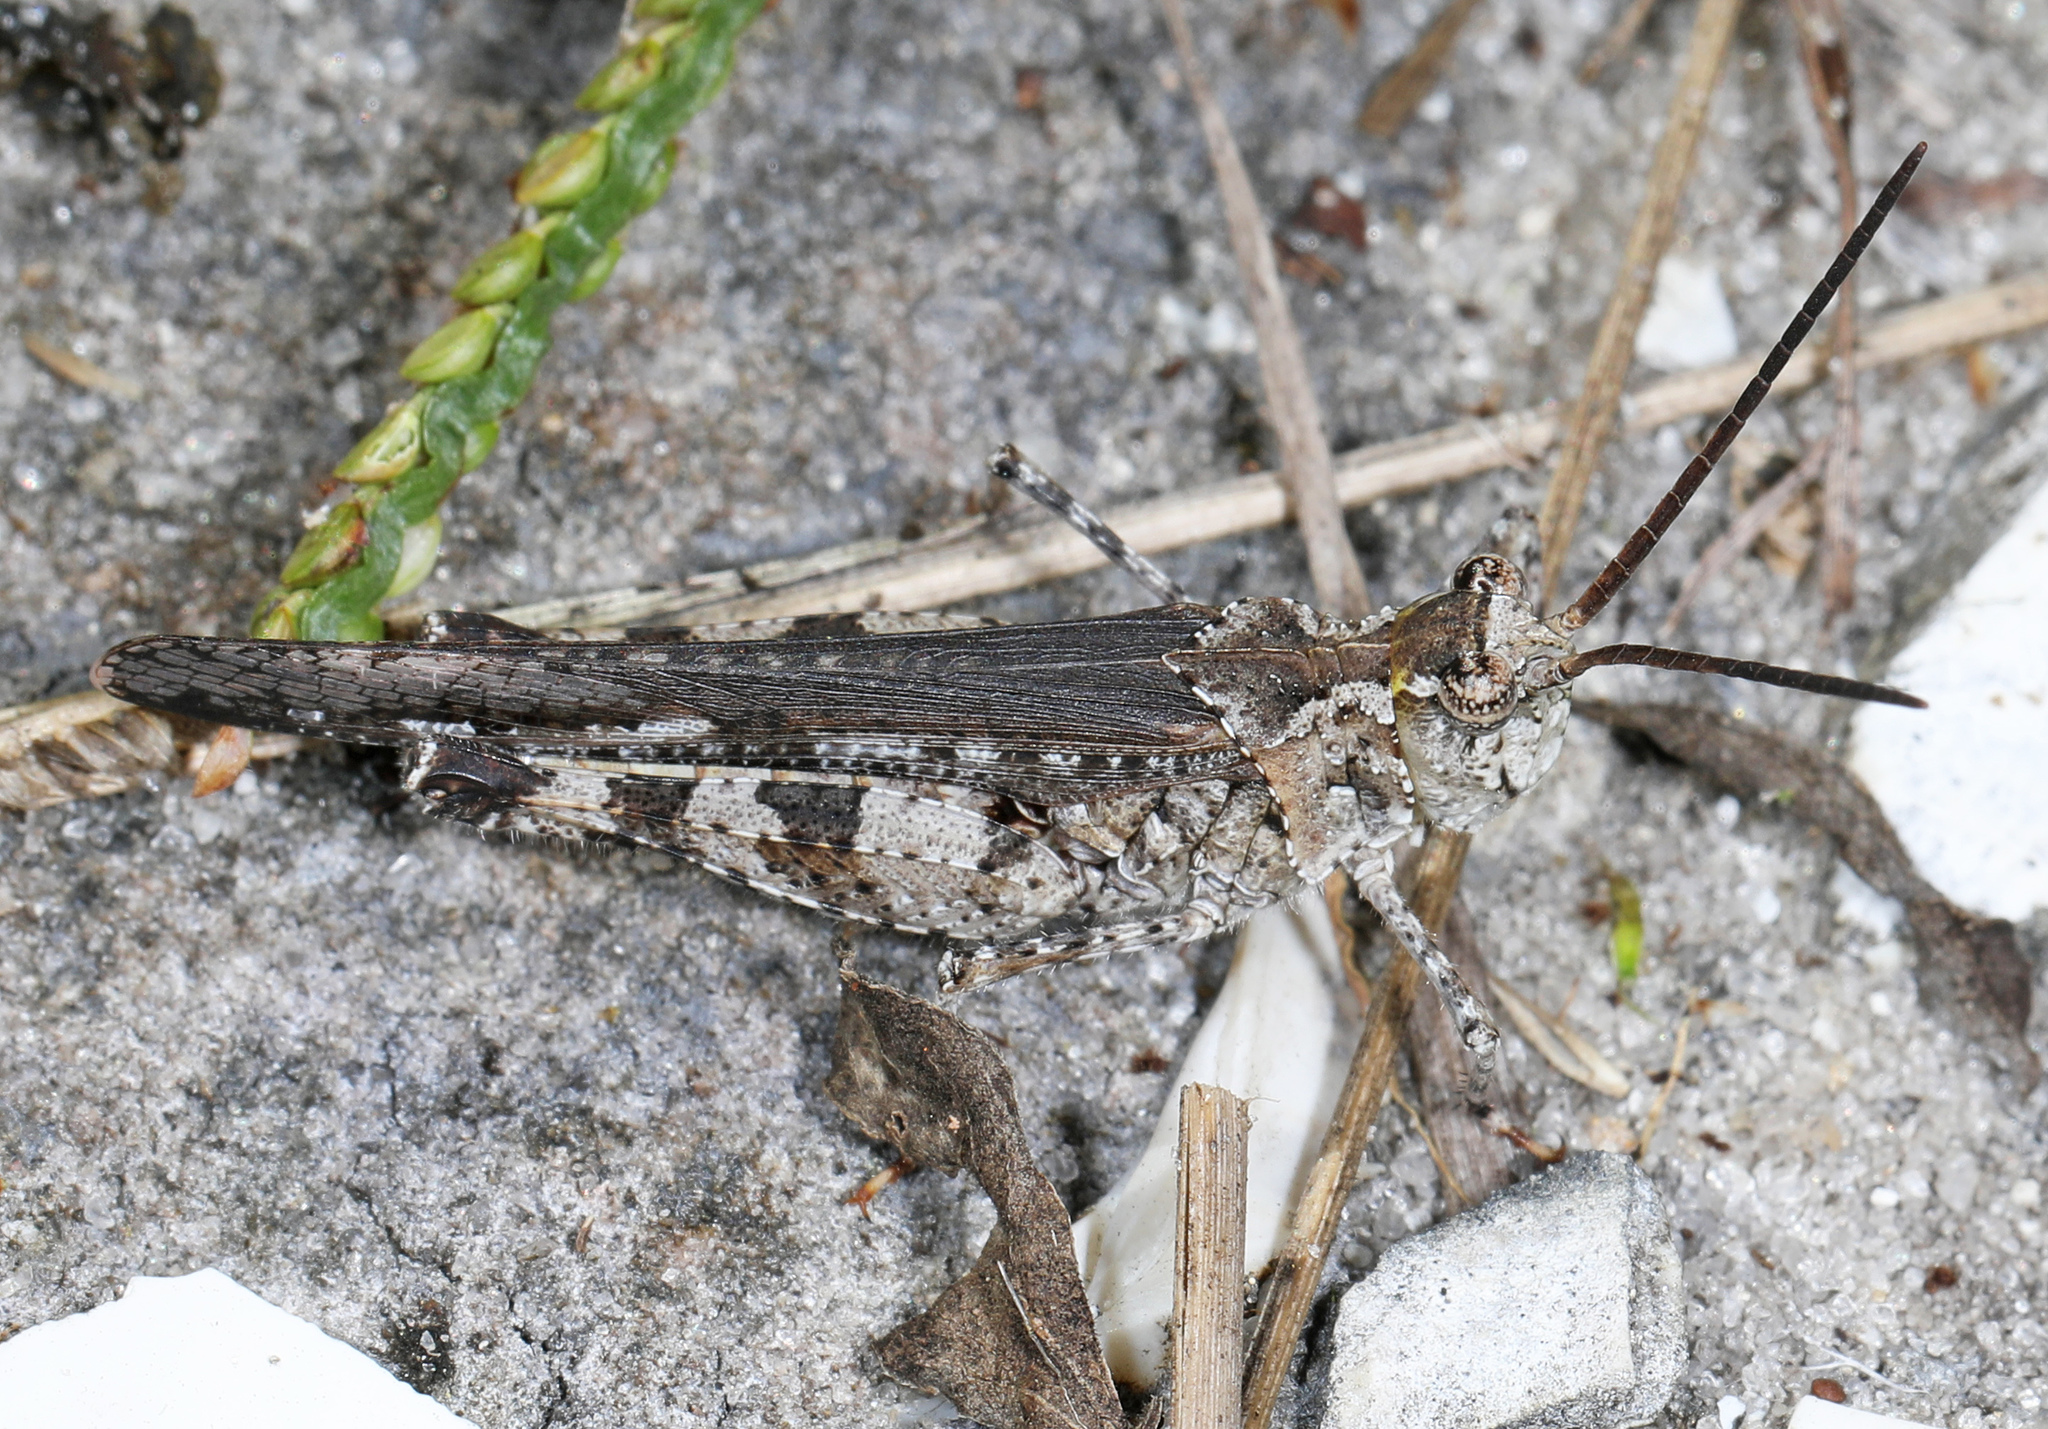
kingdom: Animalia
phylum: Arthropoda
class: Insecta
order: Orthoptera
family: Acrididae
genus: Psinidia
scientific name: Psinidia fenestralis
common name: Long-horned locust
